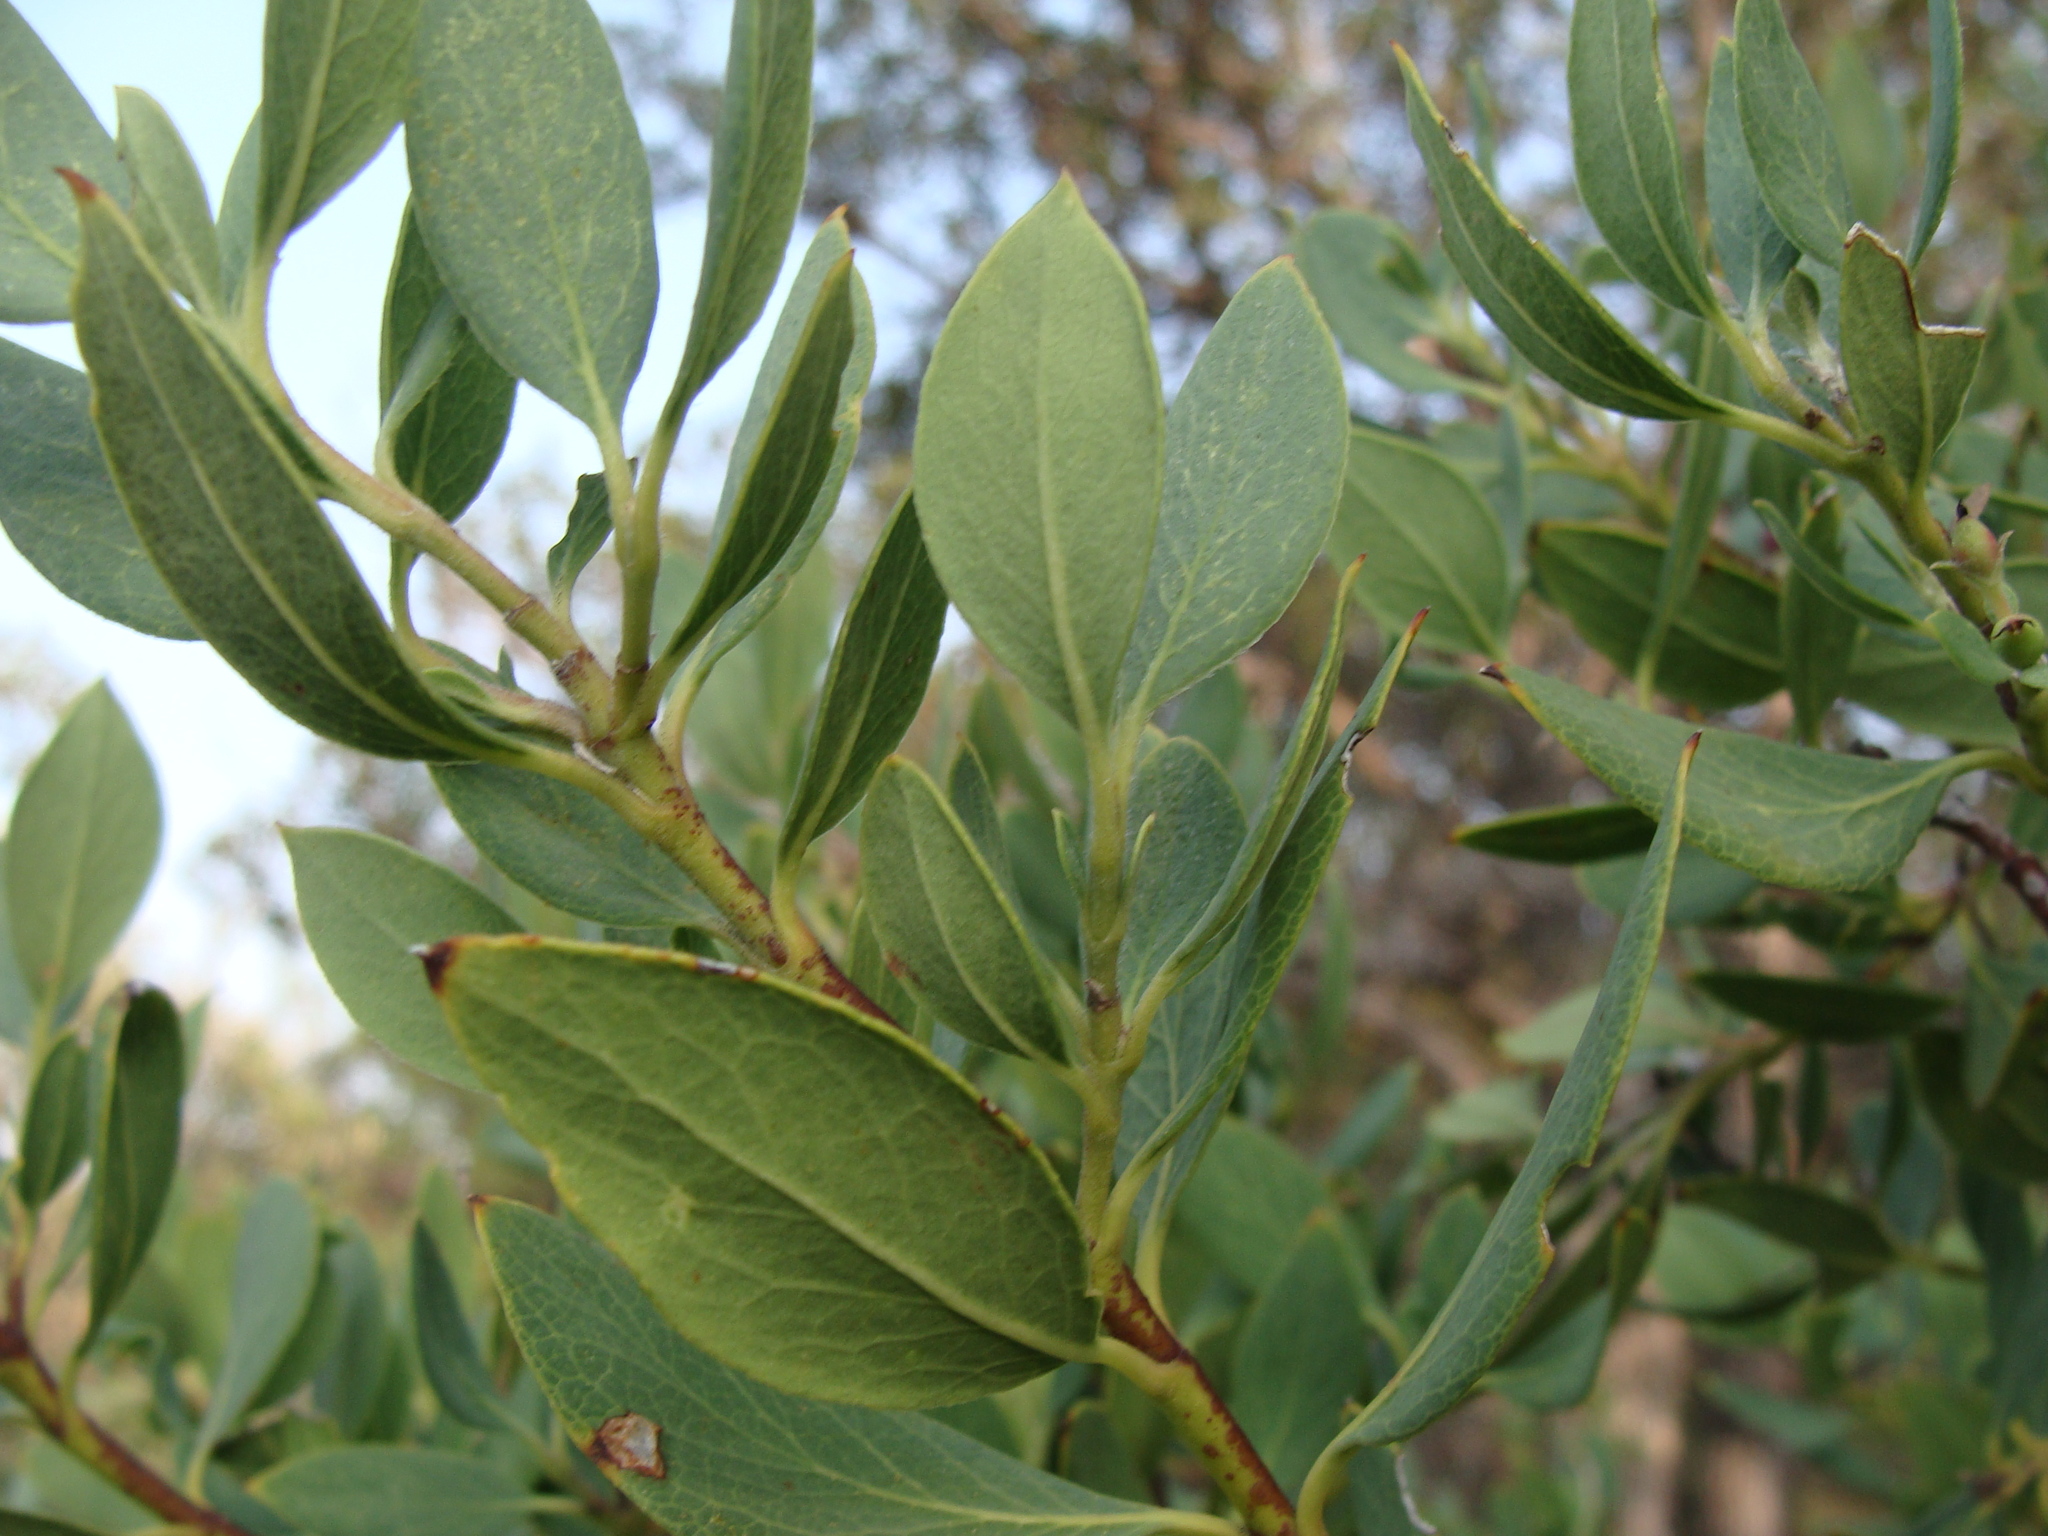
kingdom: Plantae
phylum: Tracheophyta
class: Magnoliopsida
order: Garryales
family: Garryaceae
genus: Garrya
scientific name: Garrya wrightii
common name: Wright's silktassel
